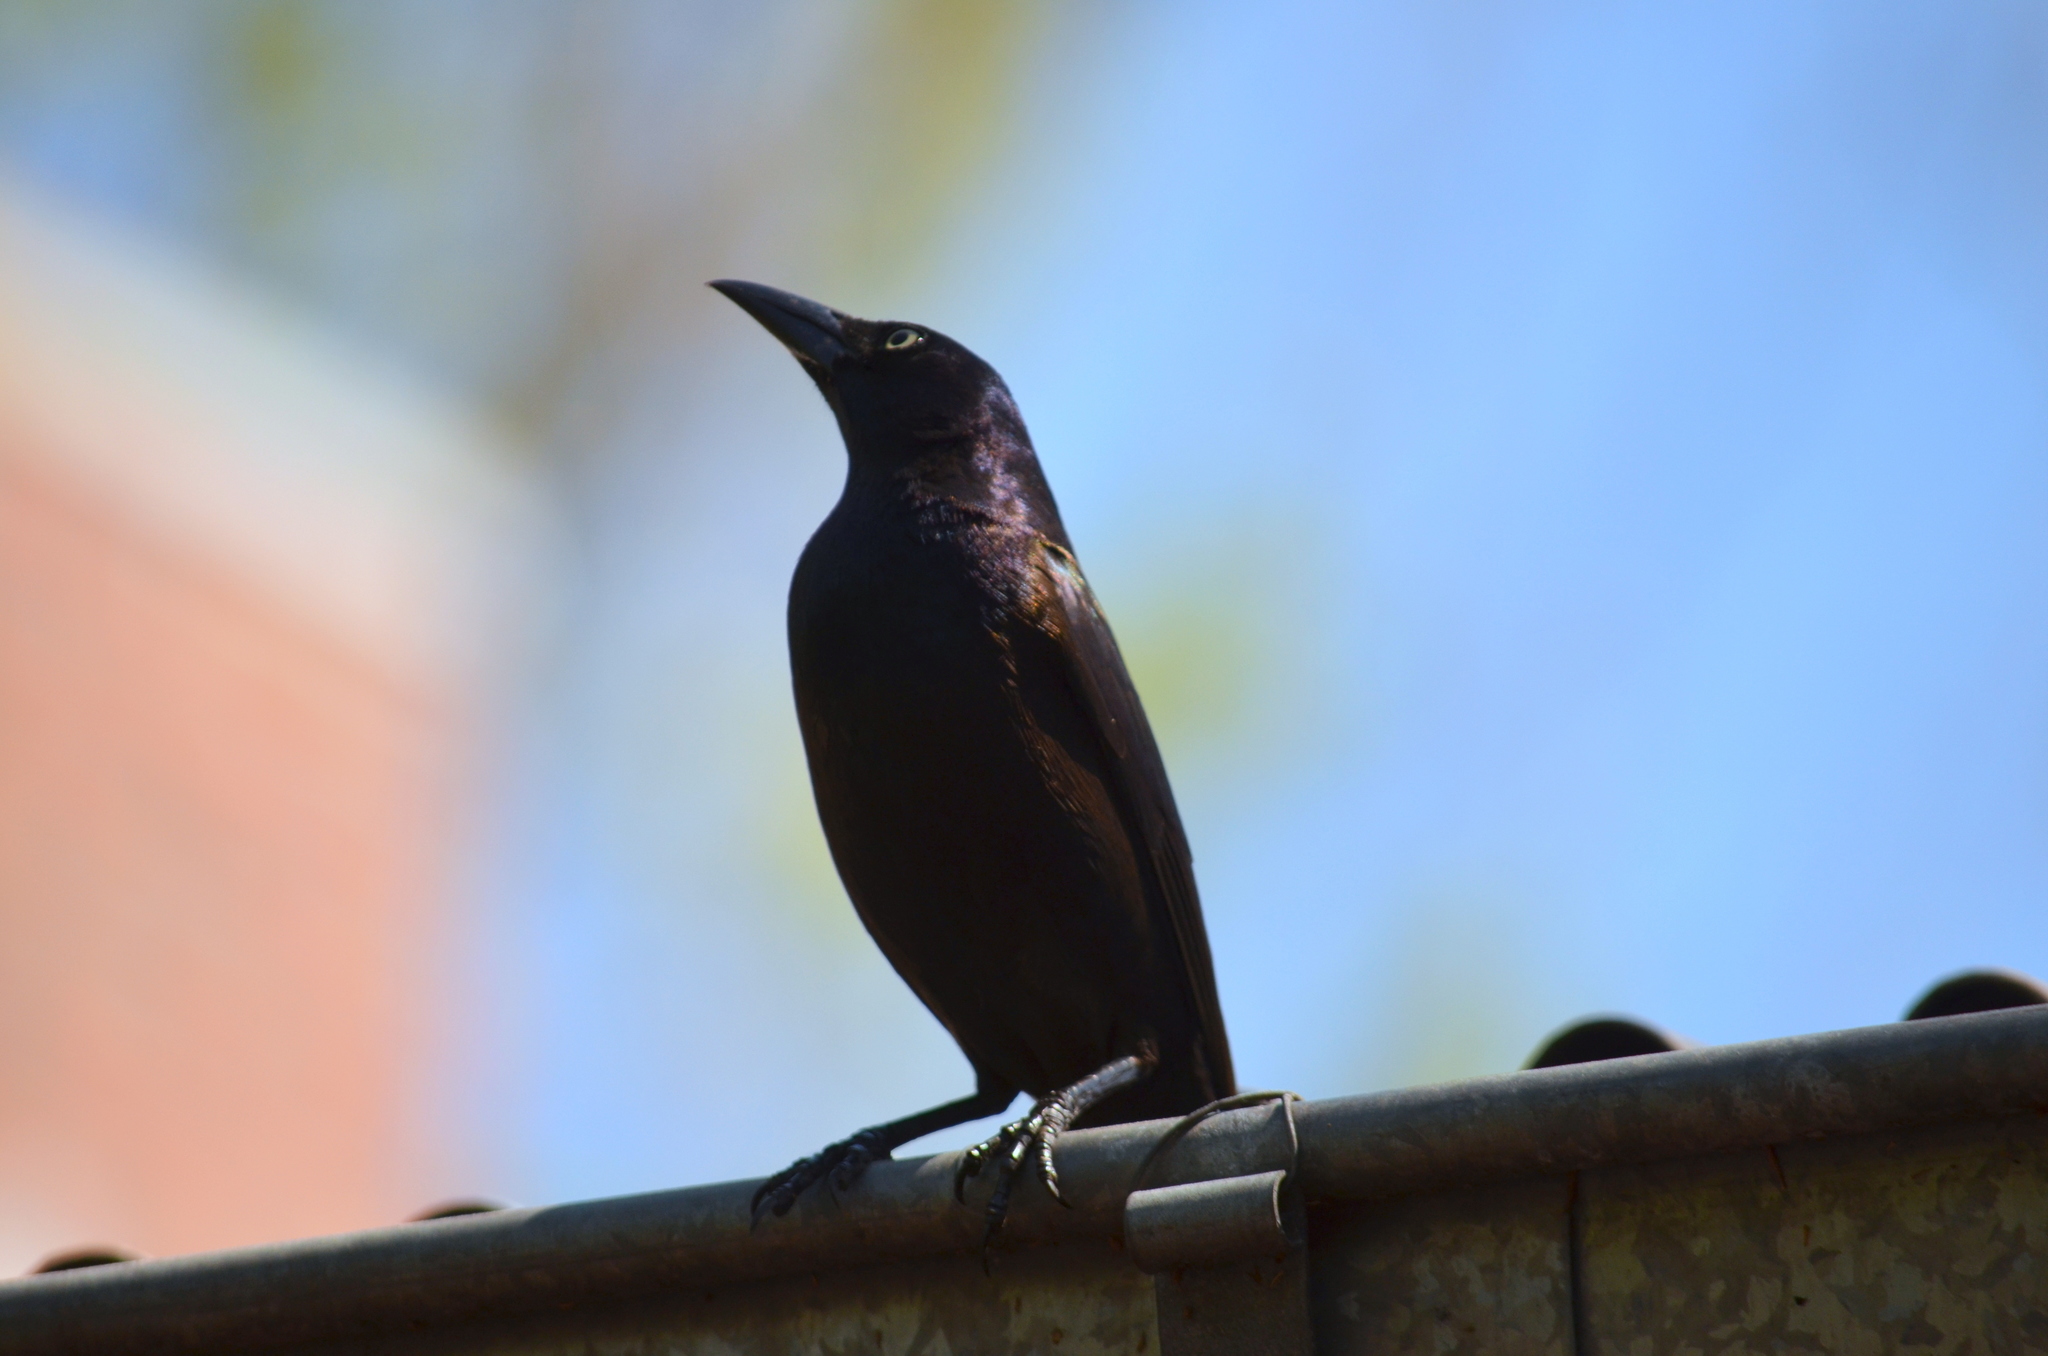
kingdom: Animalia
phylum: Chordata
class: Aves
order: Passeriformes
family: Icteridae
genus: Quiscalus
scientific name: Quiscalus quiscula
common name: Common grackle
